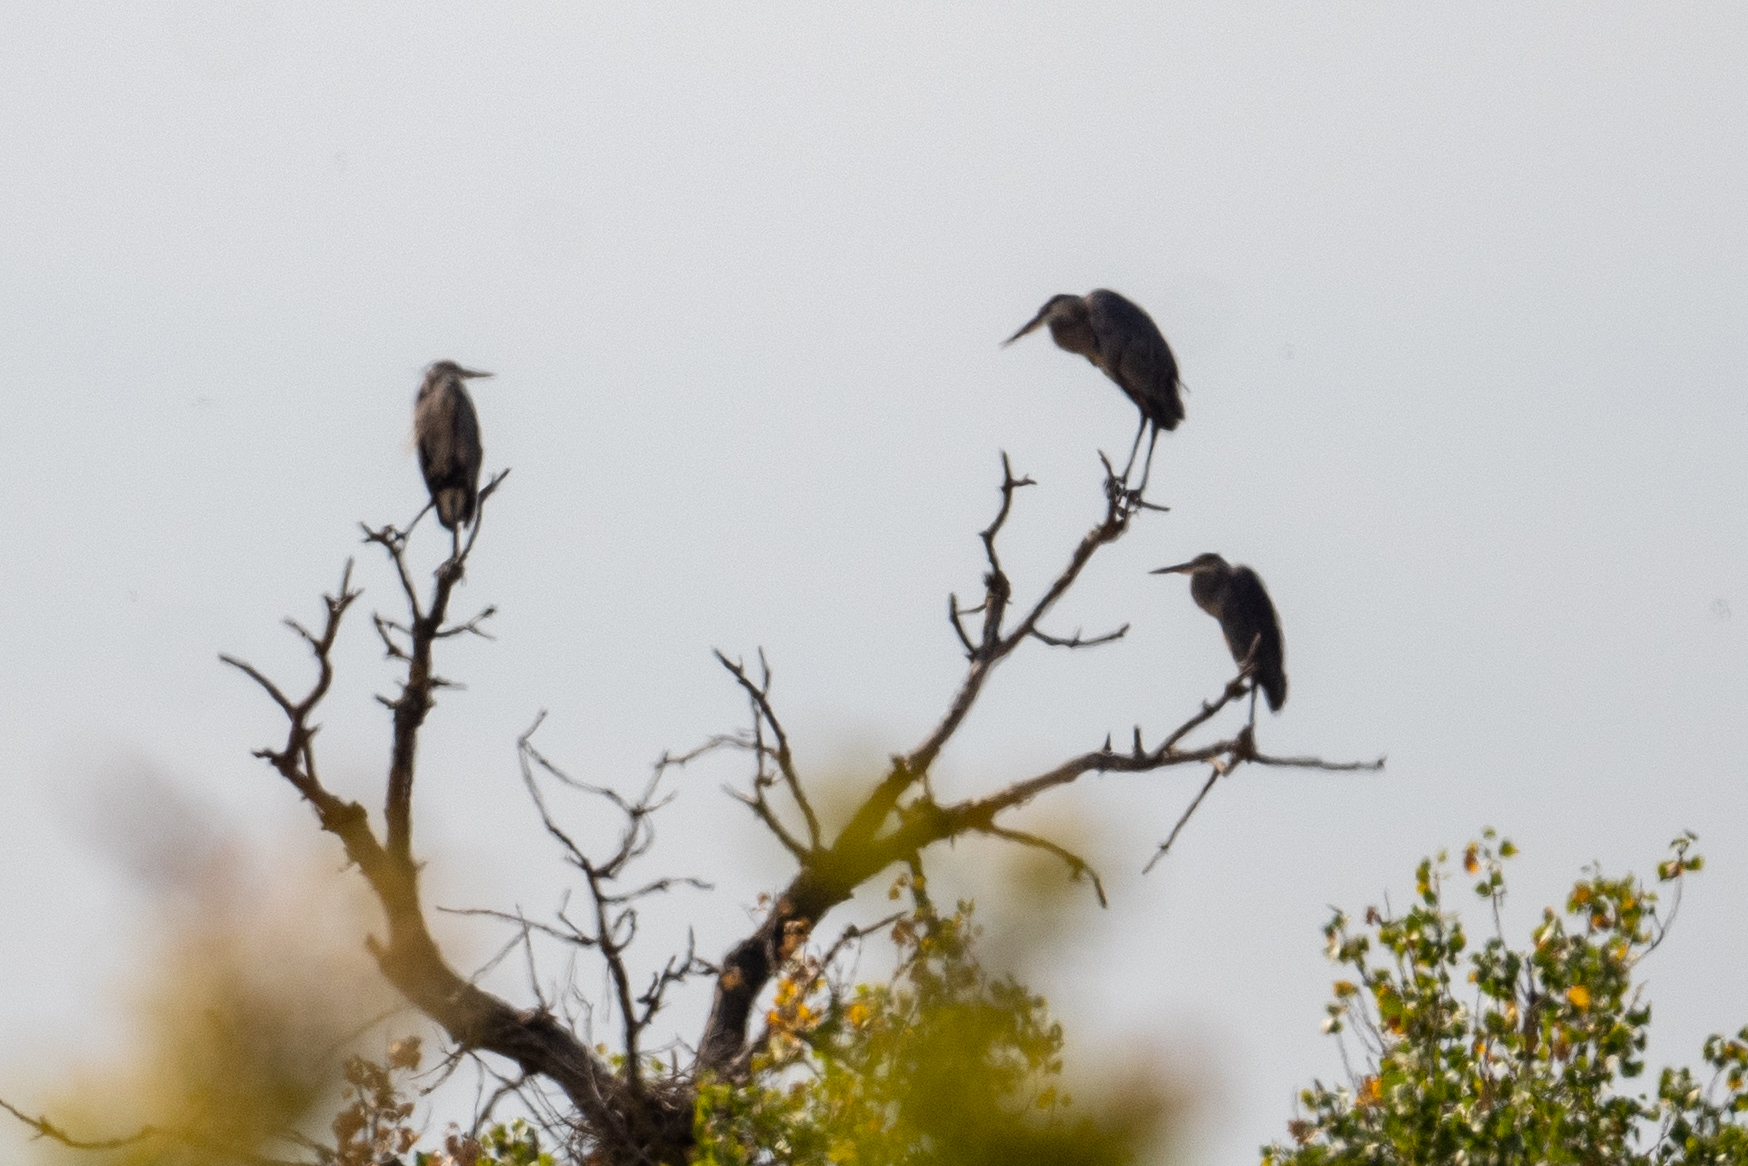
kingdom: Animalia
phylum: Chordata
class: Aves
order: Pelecaniformes
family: Ardeidae
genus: Ardea
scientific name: Ardea herodias
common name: Great blue heron
